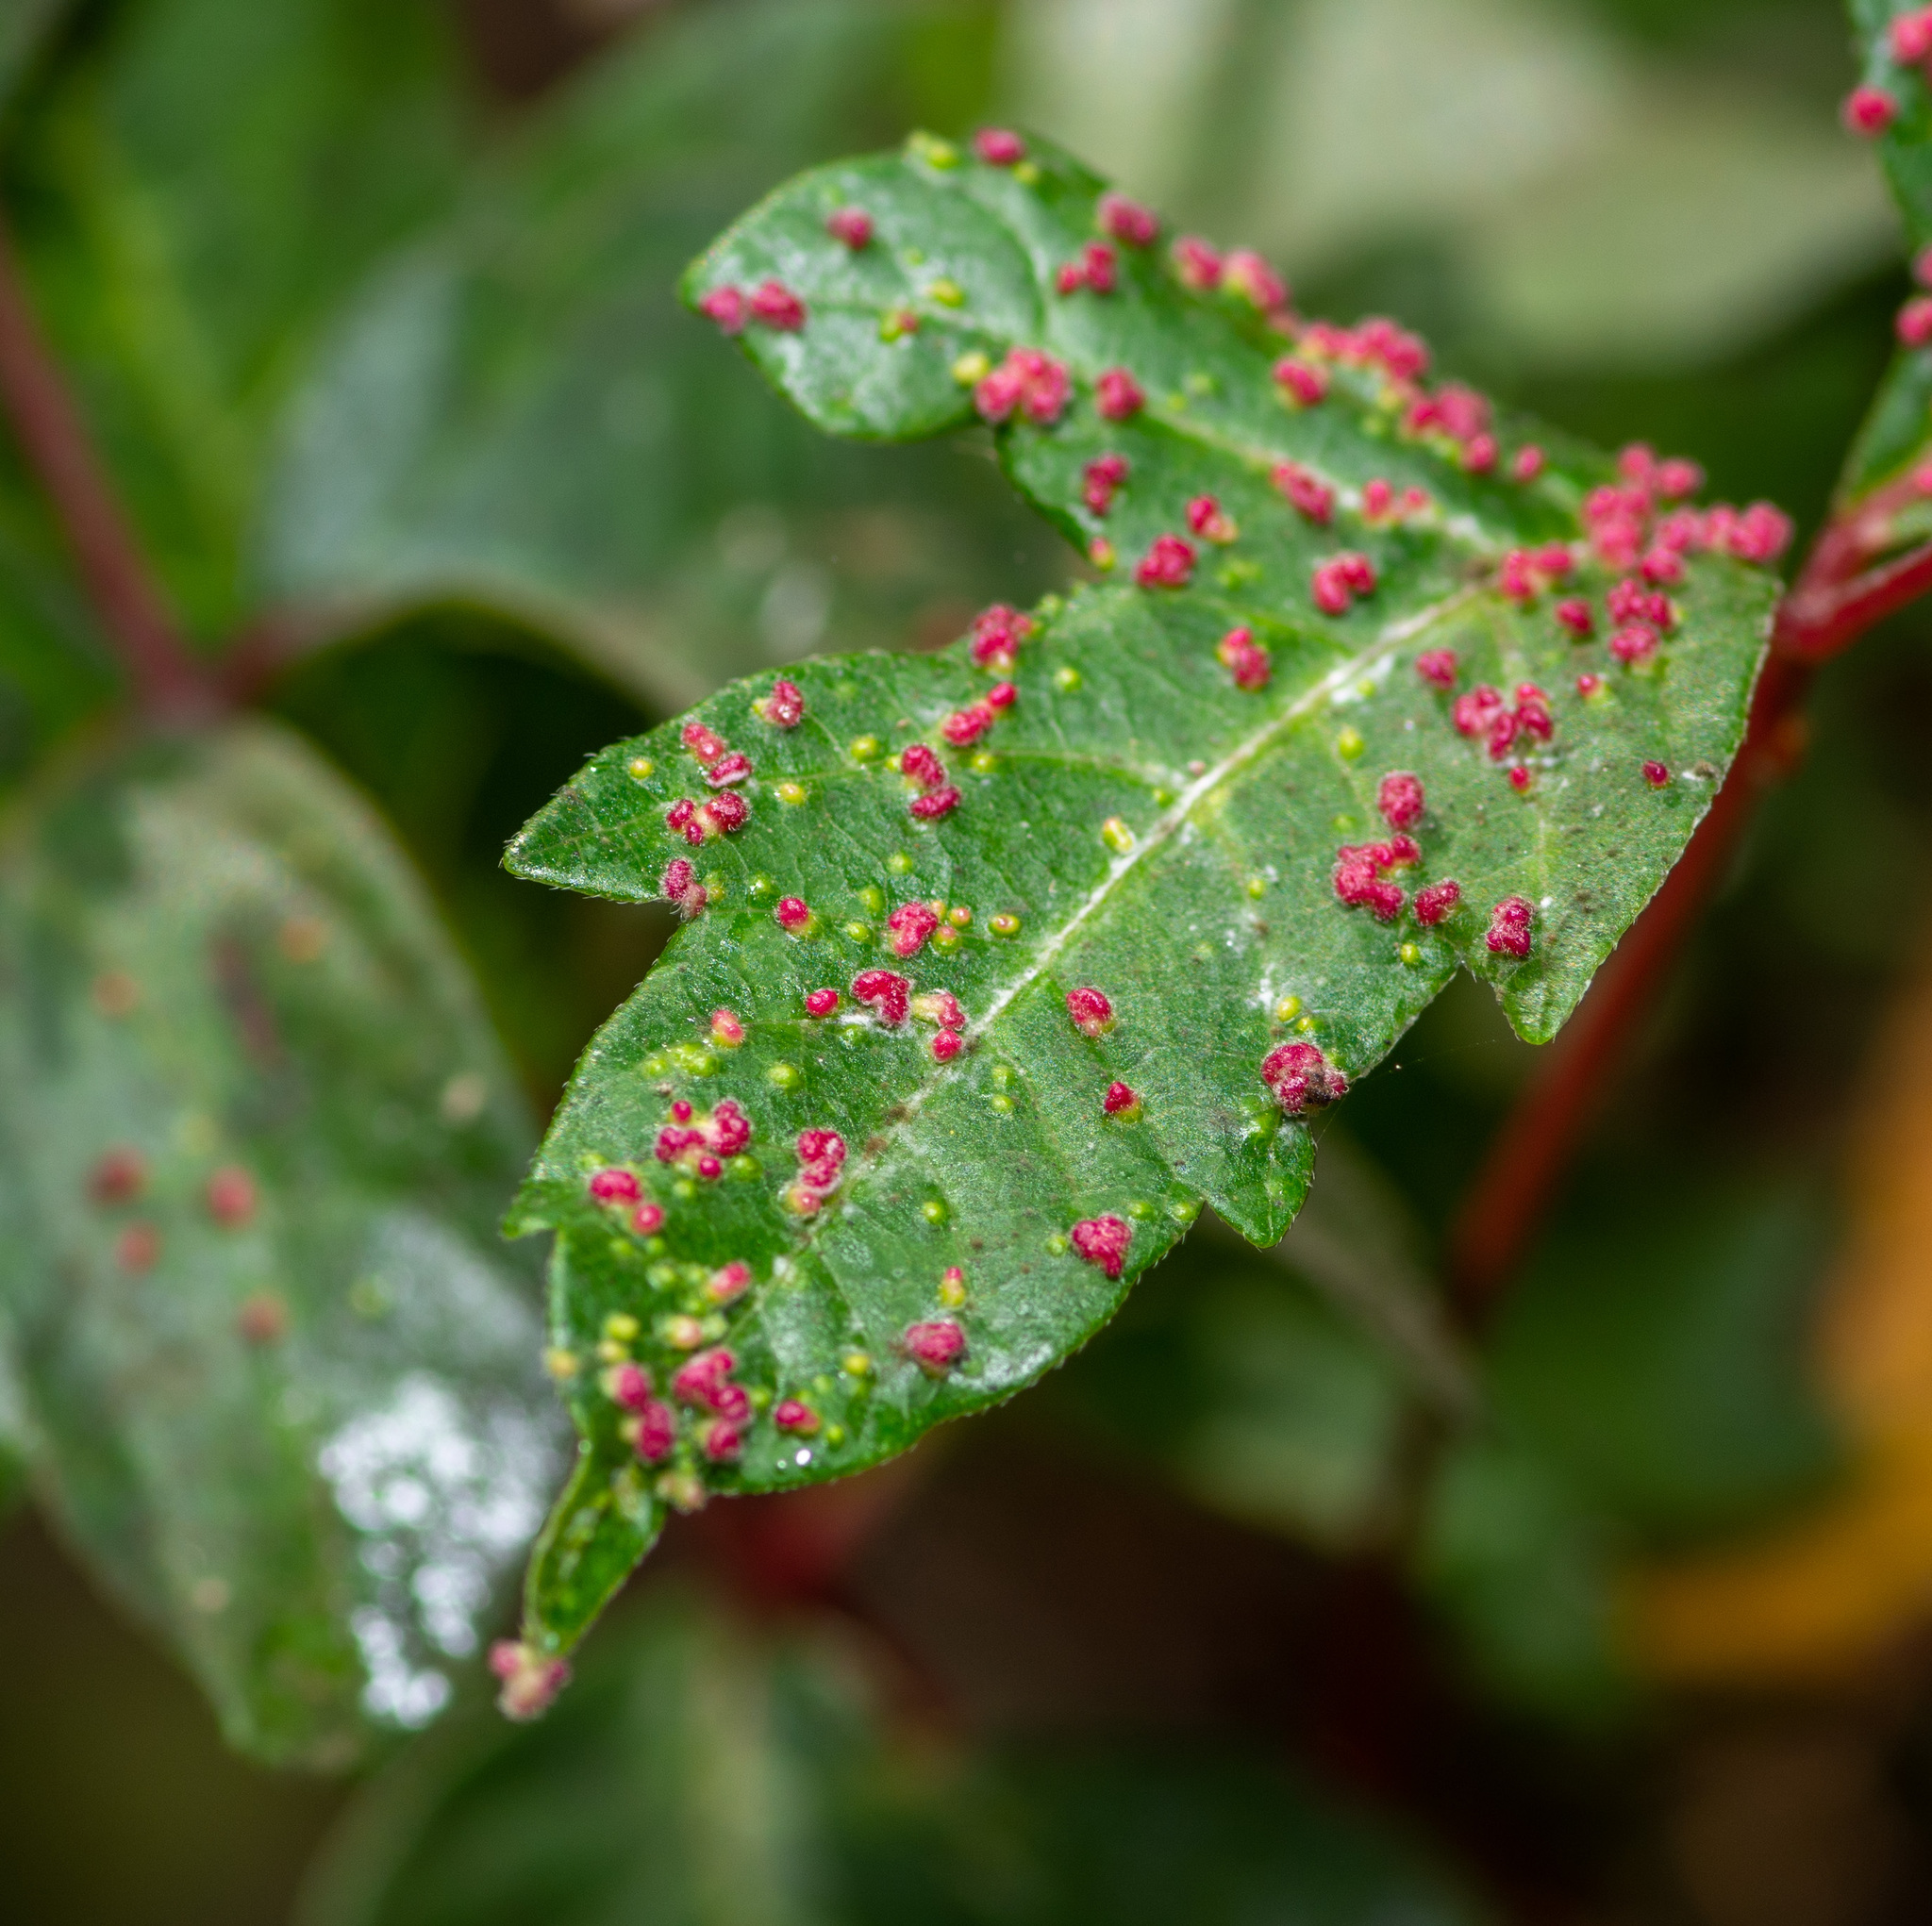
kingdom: Animalia
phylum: Arthropoda
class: Arachnida
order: Trombidiformes
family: Eriophyidae
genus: Aculops
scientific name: Aculops
